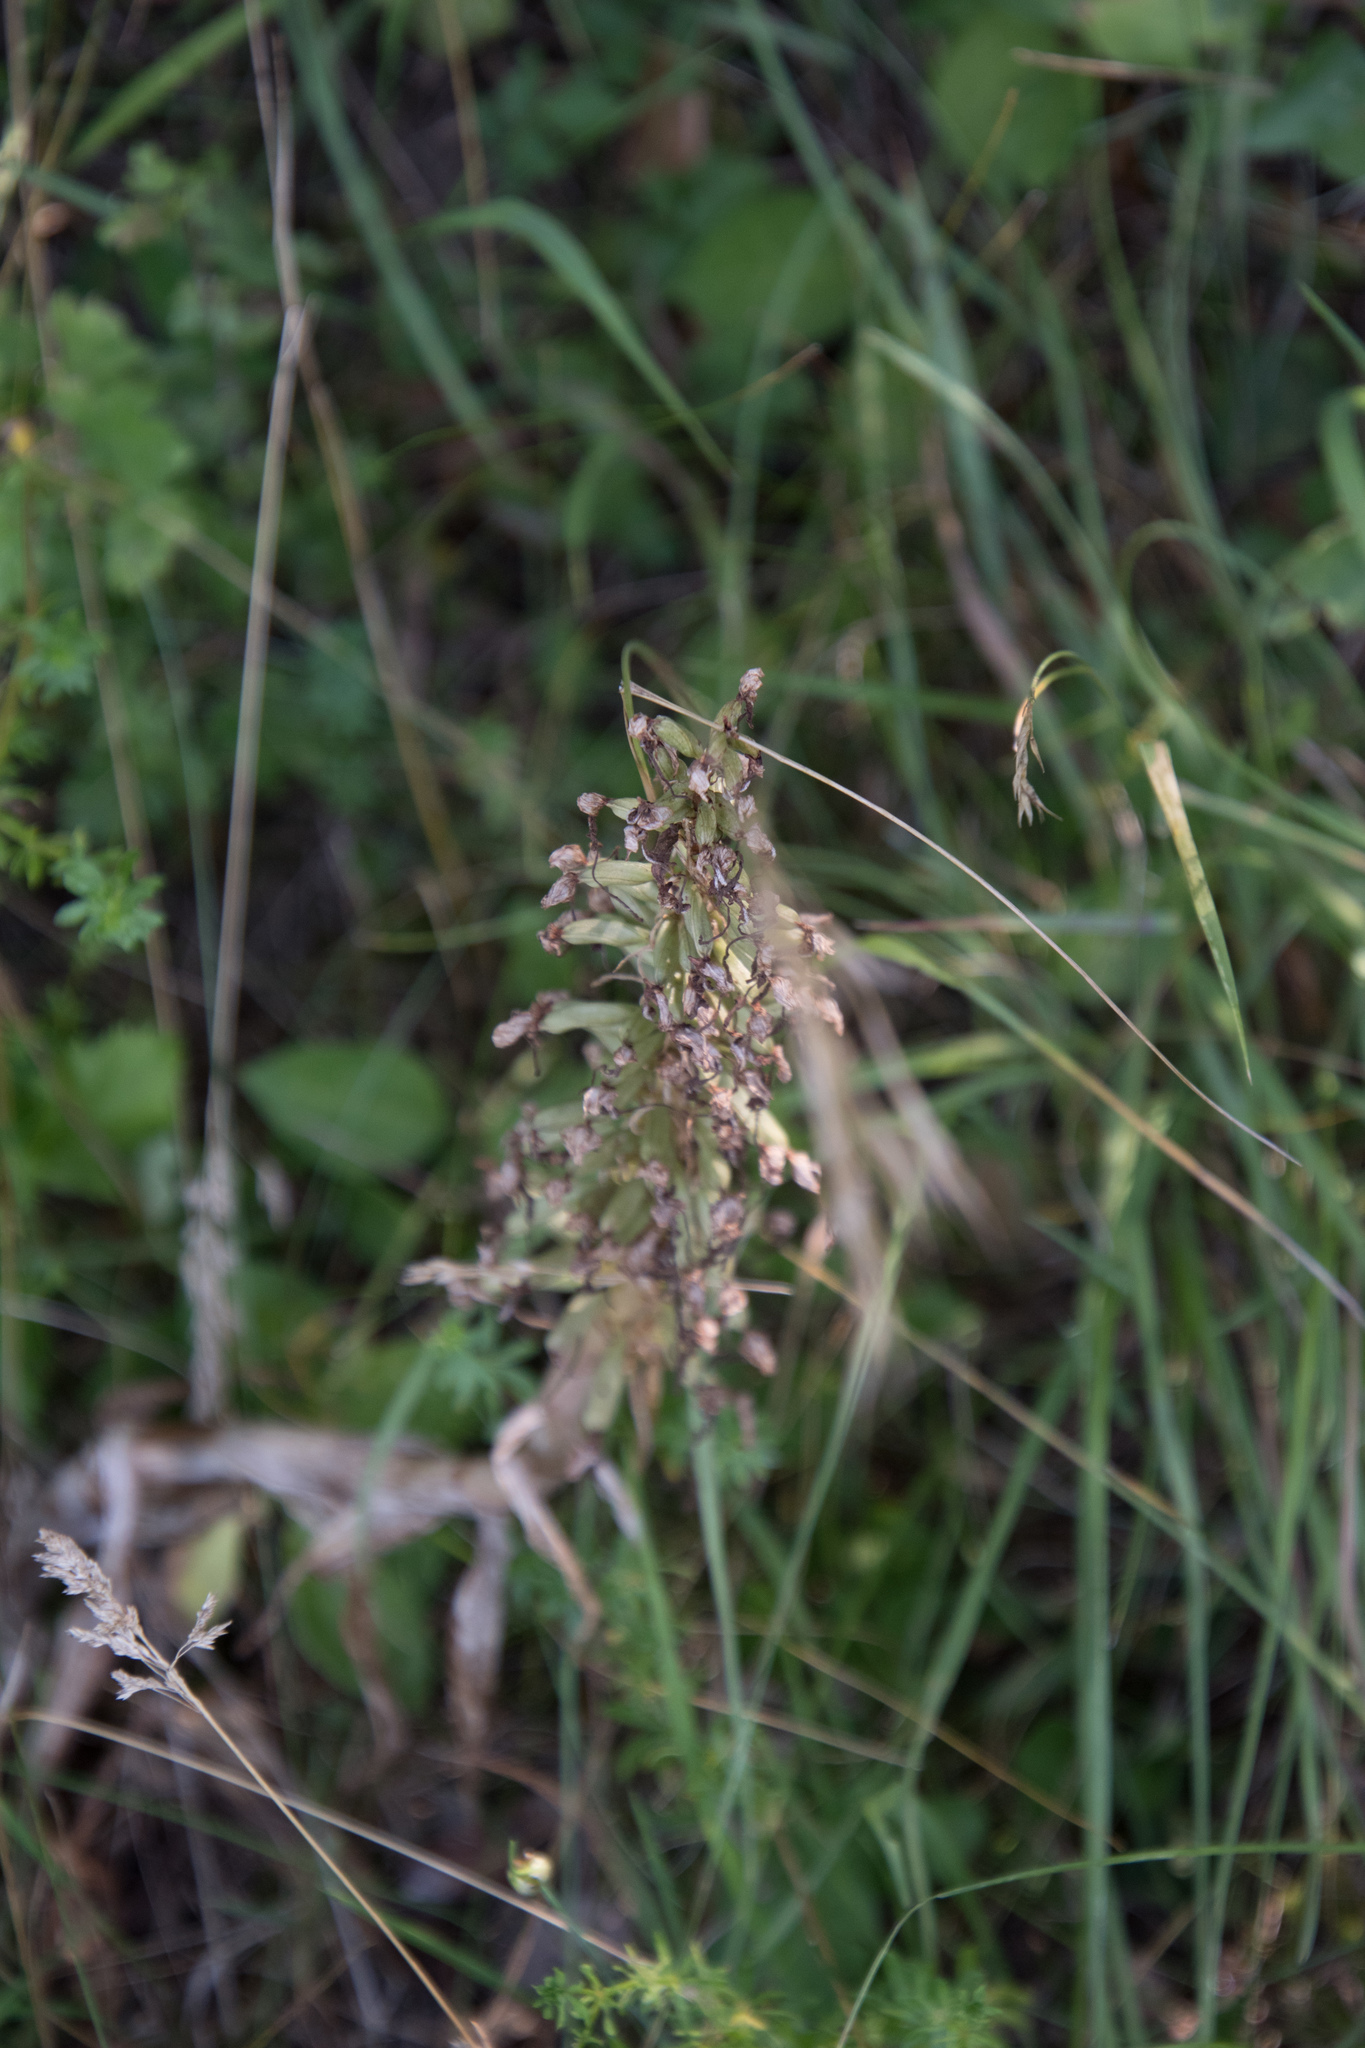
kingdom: Plantae
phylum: Tracheophyta
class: Liliopsida
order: Asparagales
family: Orchidaceae
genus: Himantoglossum
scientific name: Himantoglossum hircinum
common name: Lizard orchid
